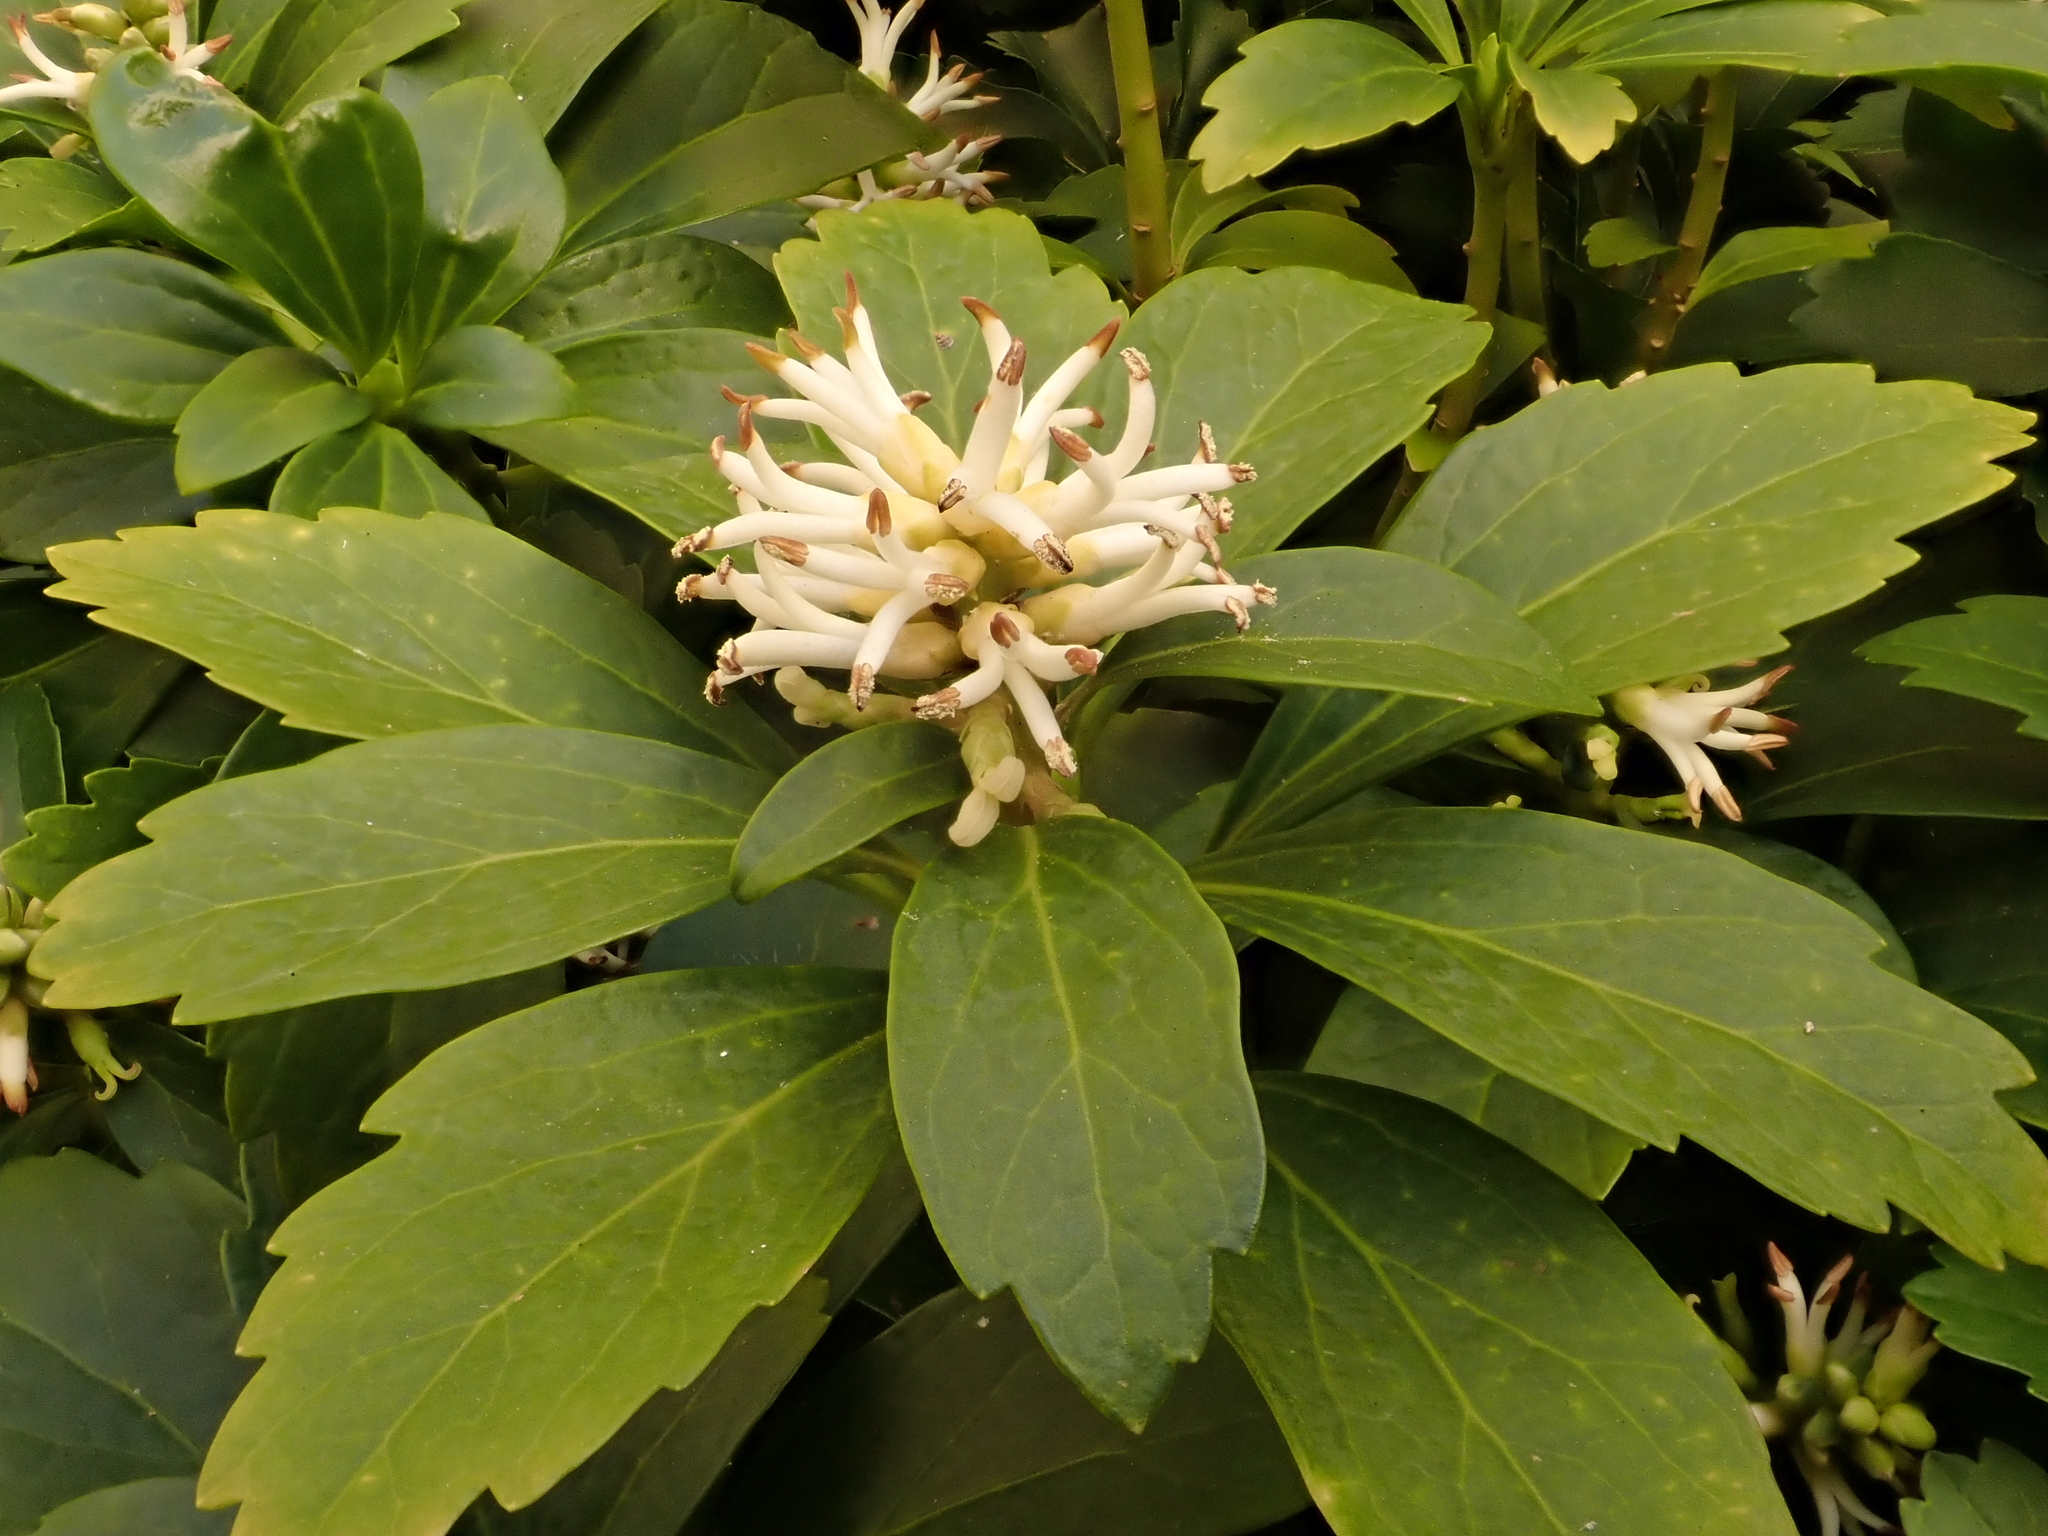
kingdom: Plantae
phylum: Tracheophyta
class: Magnoliopsida
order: Buxales
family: Buxaceae
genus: Pachysandra
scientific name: Pachysandra terminalis
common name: Japanese pachysandra
